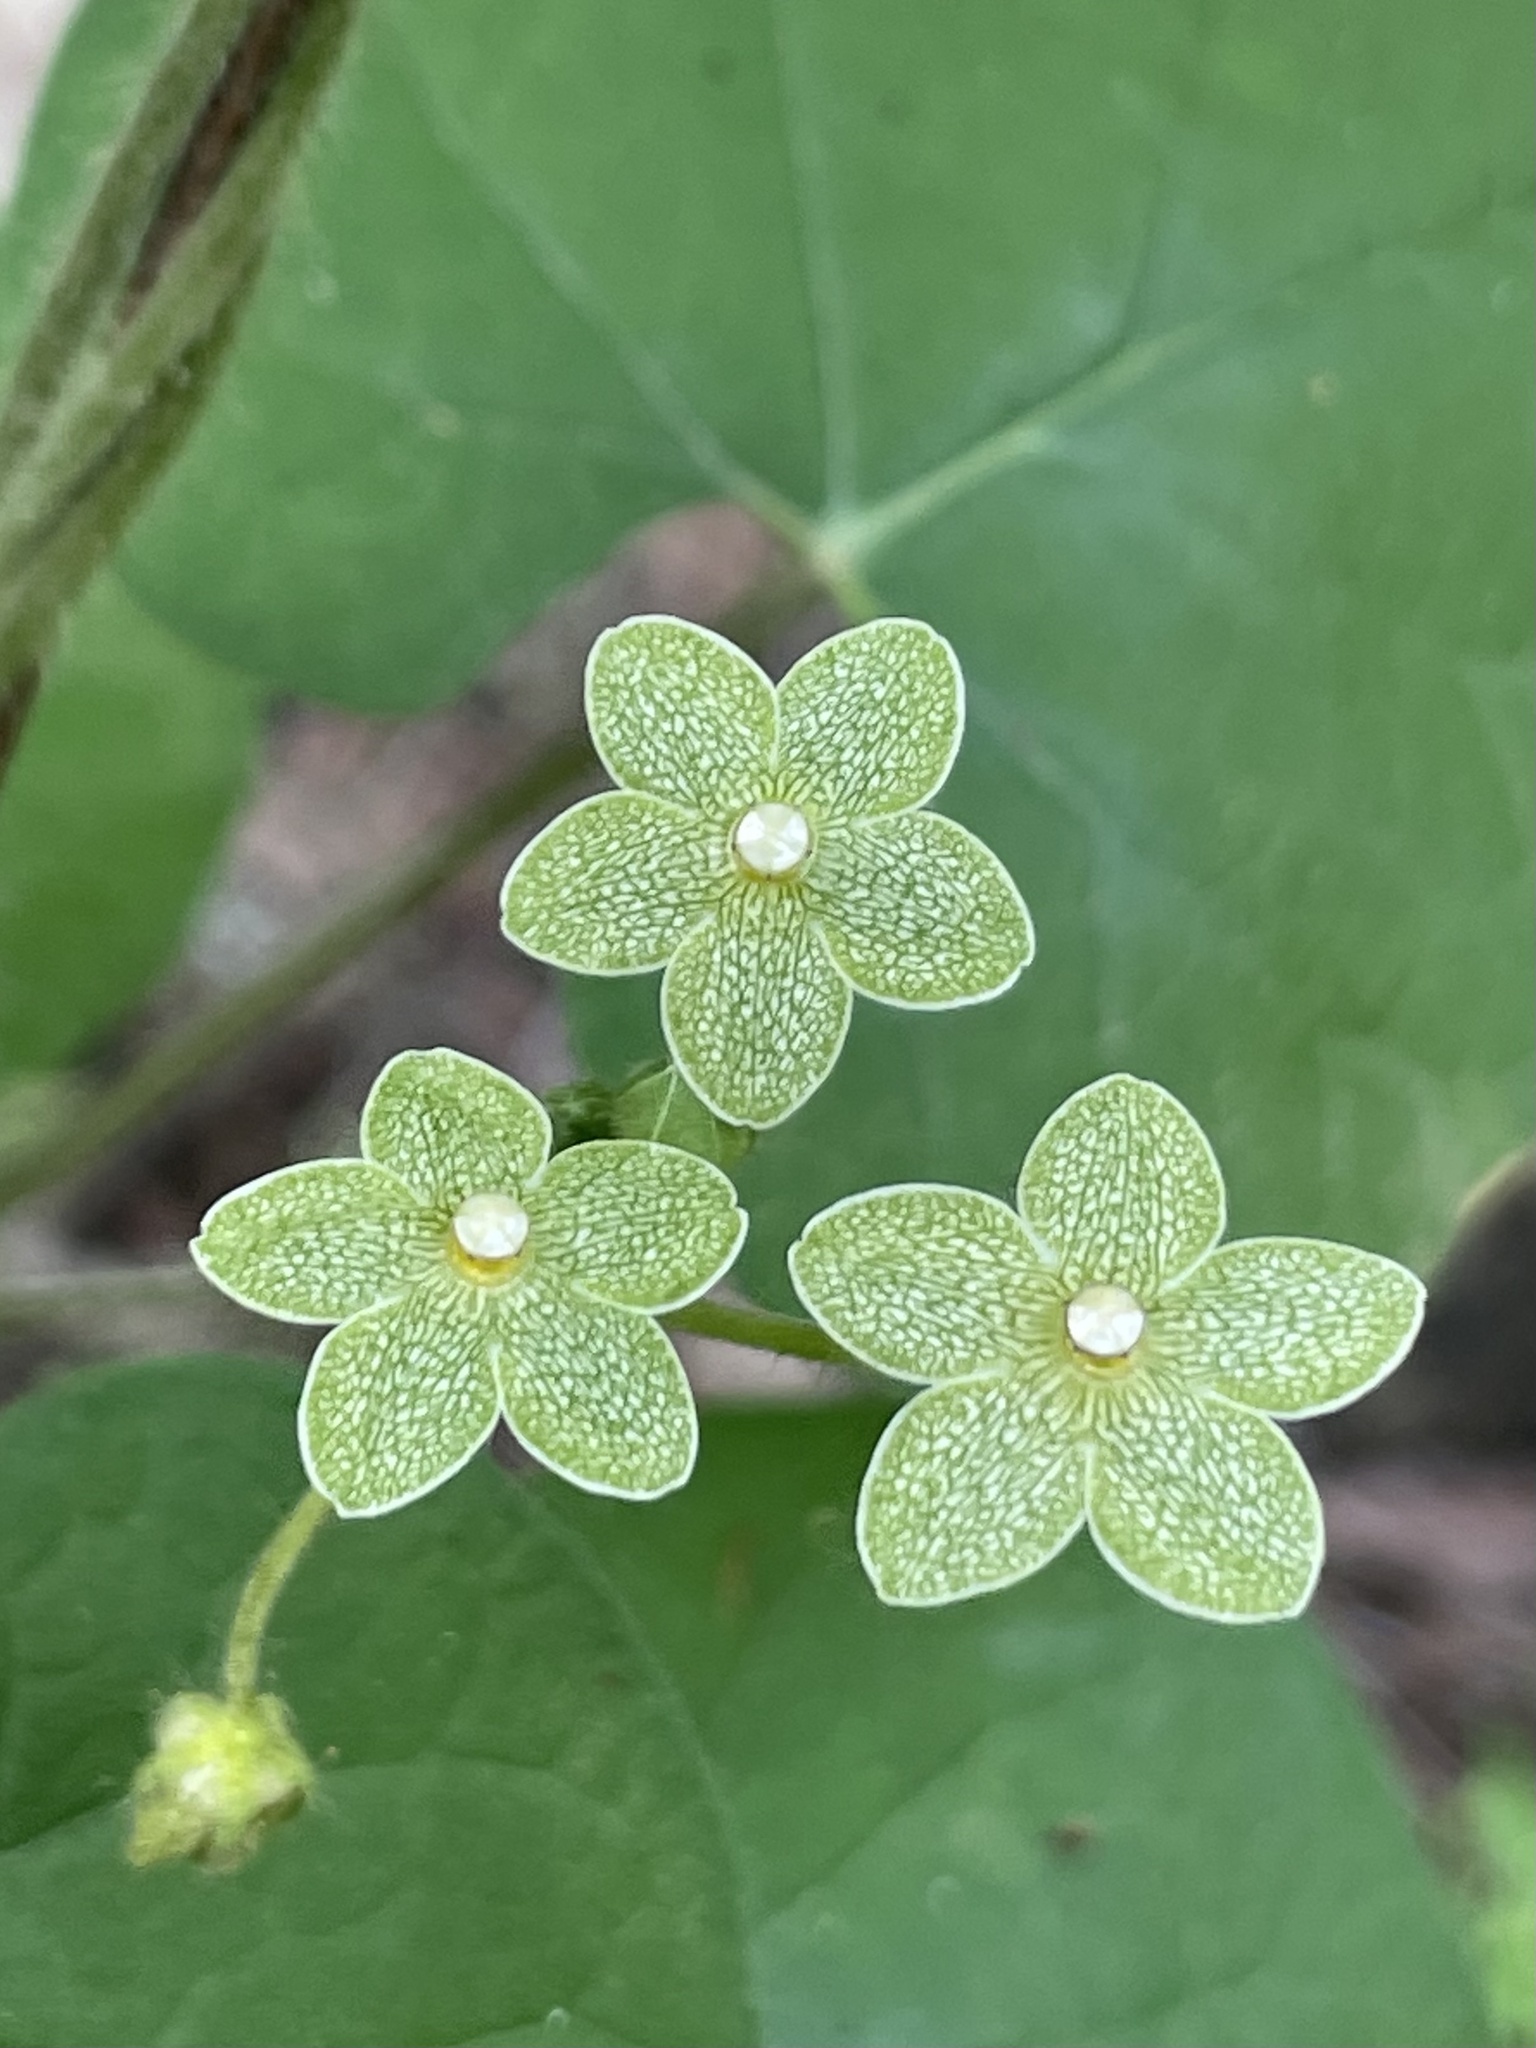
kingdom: Plantae
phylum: Tracheophyta
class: Magnoliopsida
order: Gentianales
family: Apocynaceae
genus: Dictyanthus
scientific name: Dictyanthus reticulatus
